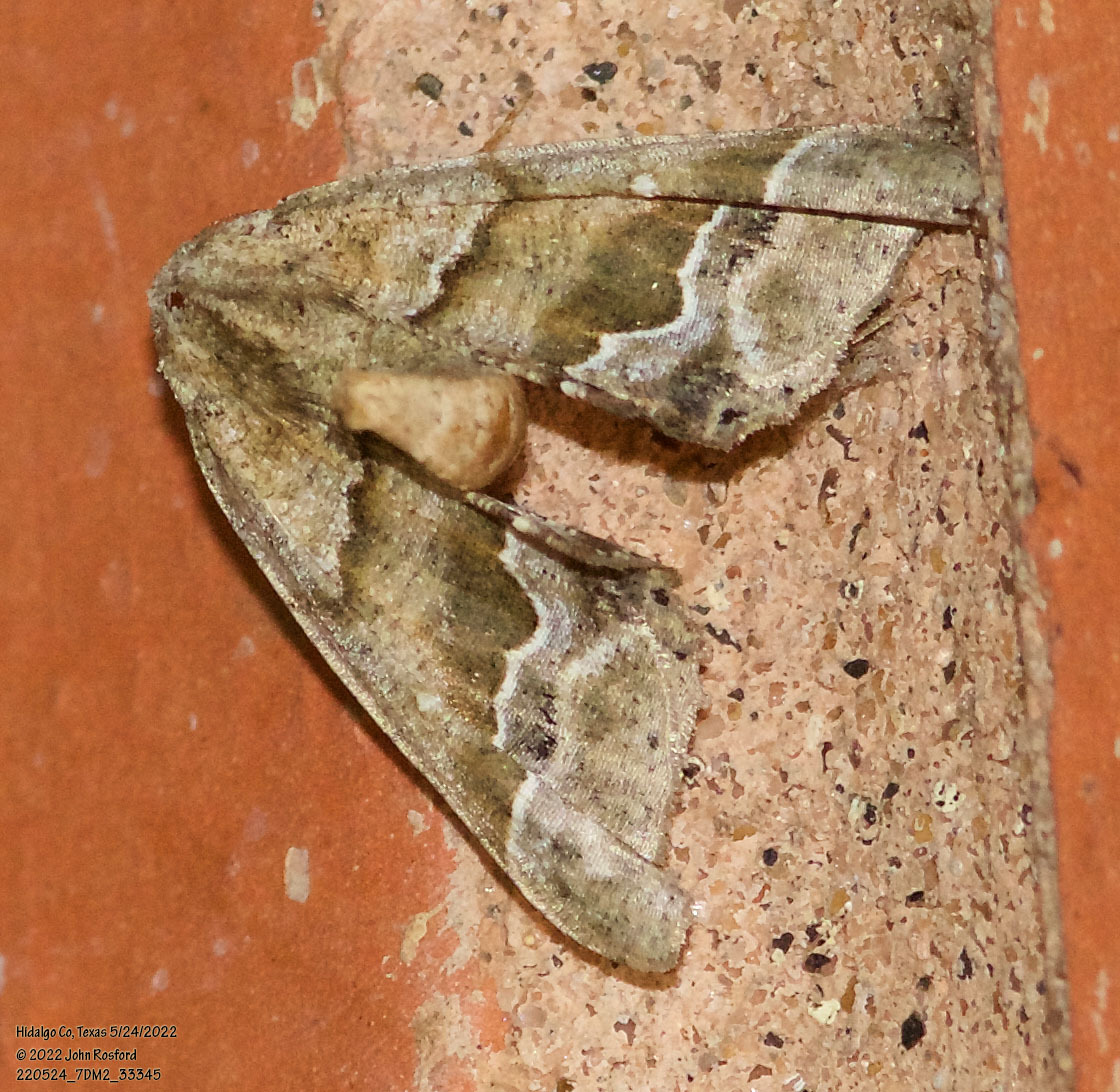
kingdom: Animalia
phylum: Arthropoda
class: Insecta
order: Lepidoptera
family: Geometridae
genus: Pero
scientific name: Pero meskaria
